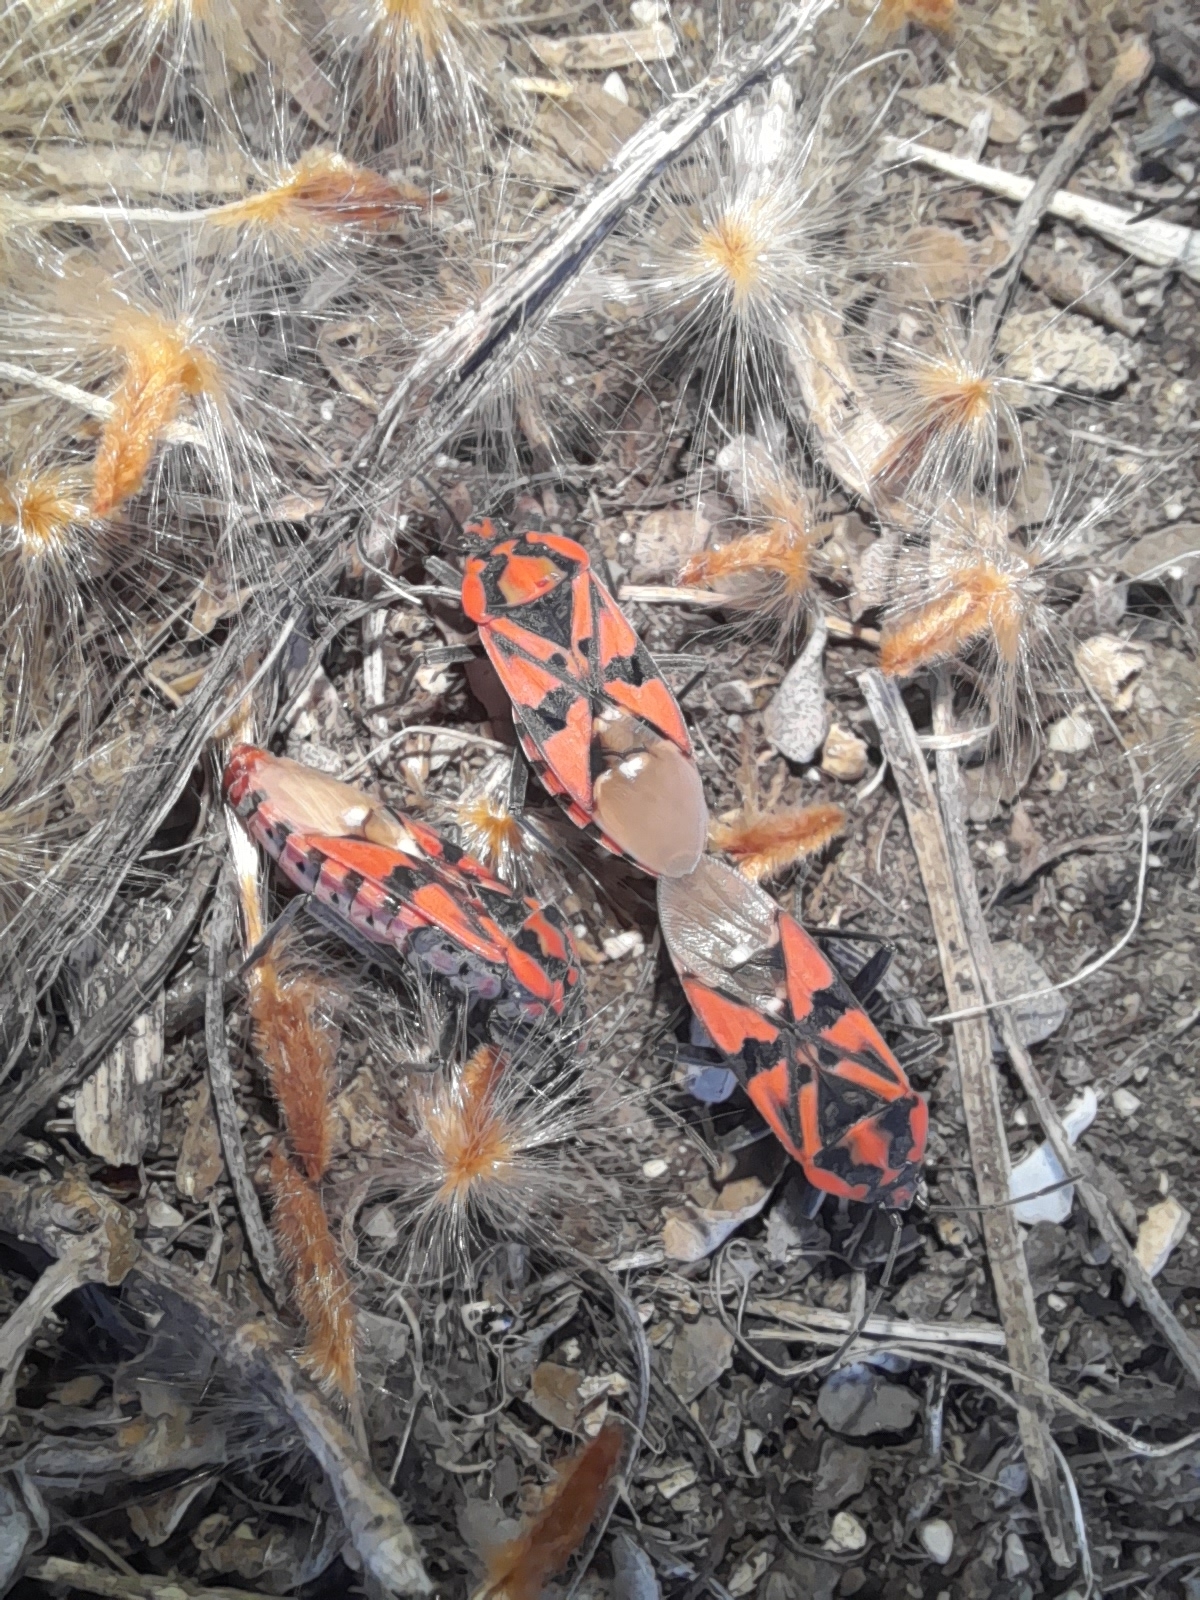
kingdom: Animalia
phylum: Arthropoda
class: Insecta
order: Hemiptera
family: Lygaeidae
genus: Spilostethus
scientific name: Spilostethus pandurus
